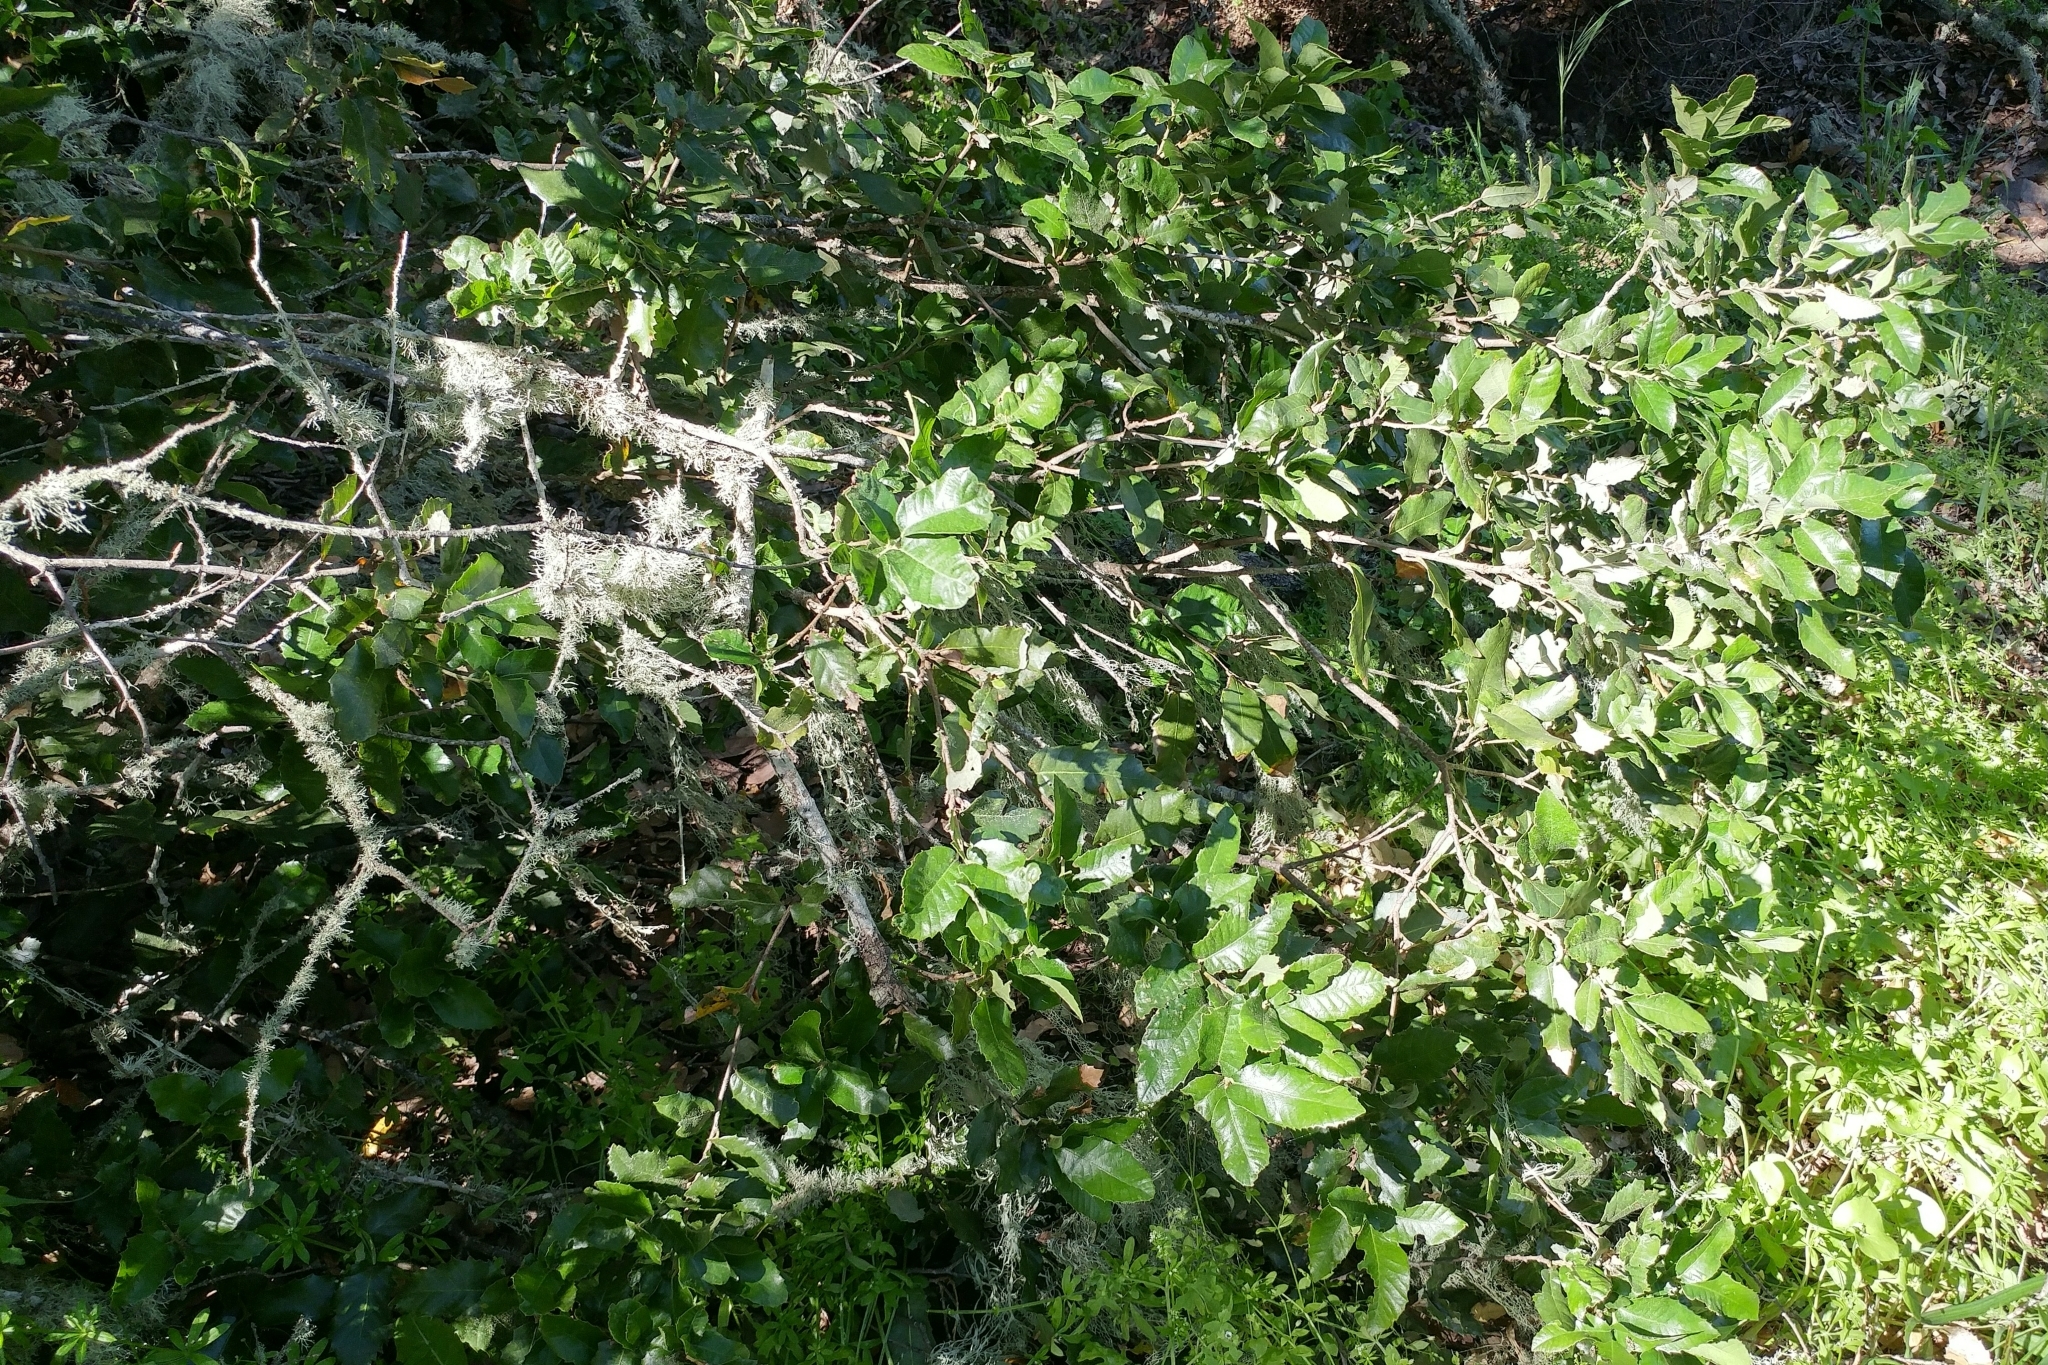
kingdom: Plantae
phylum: Tracheophyta
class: Magnoliopsida
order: Fagales
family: Fagaceae
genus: Quercus
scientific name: Quercus tomentella
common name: Island oak
